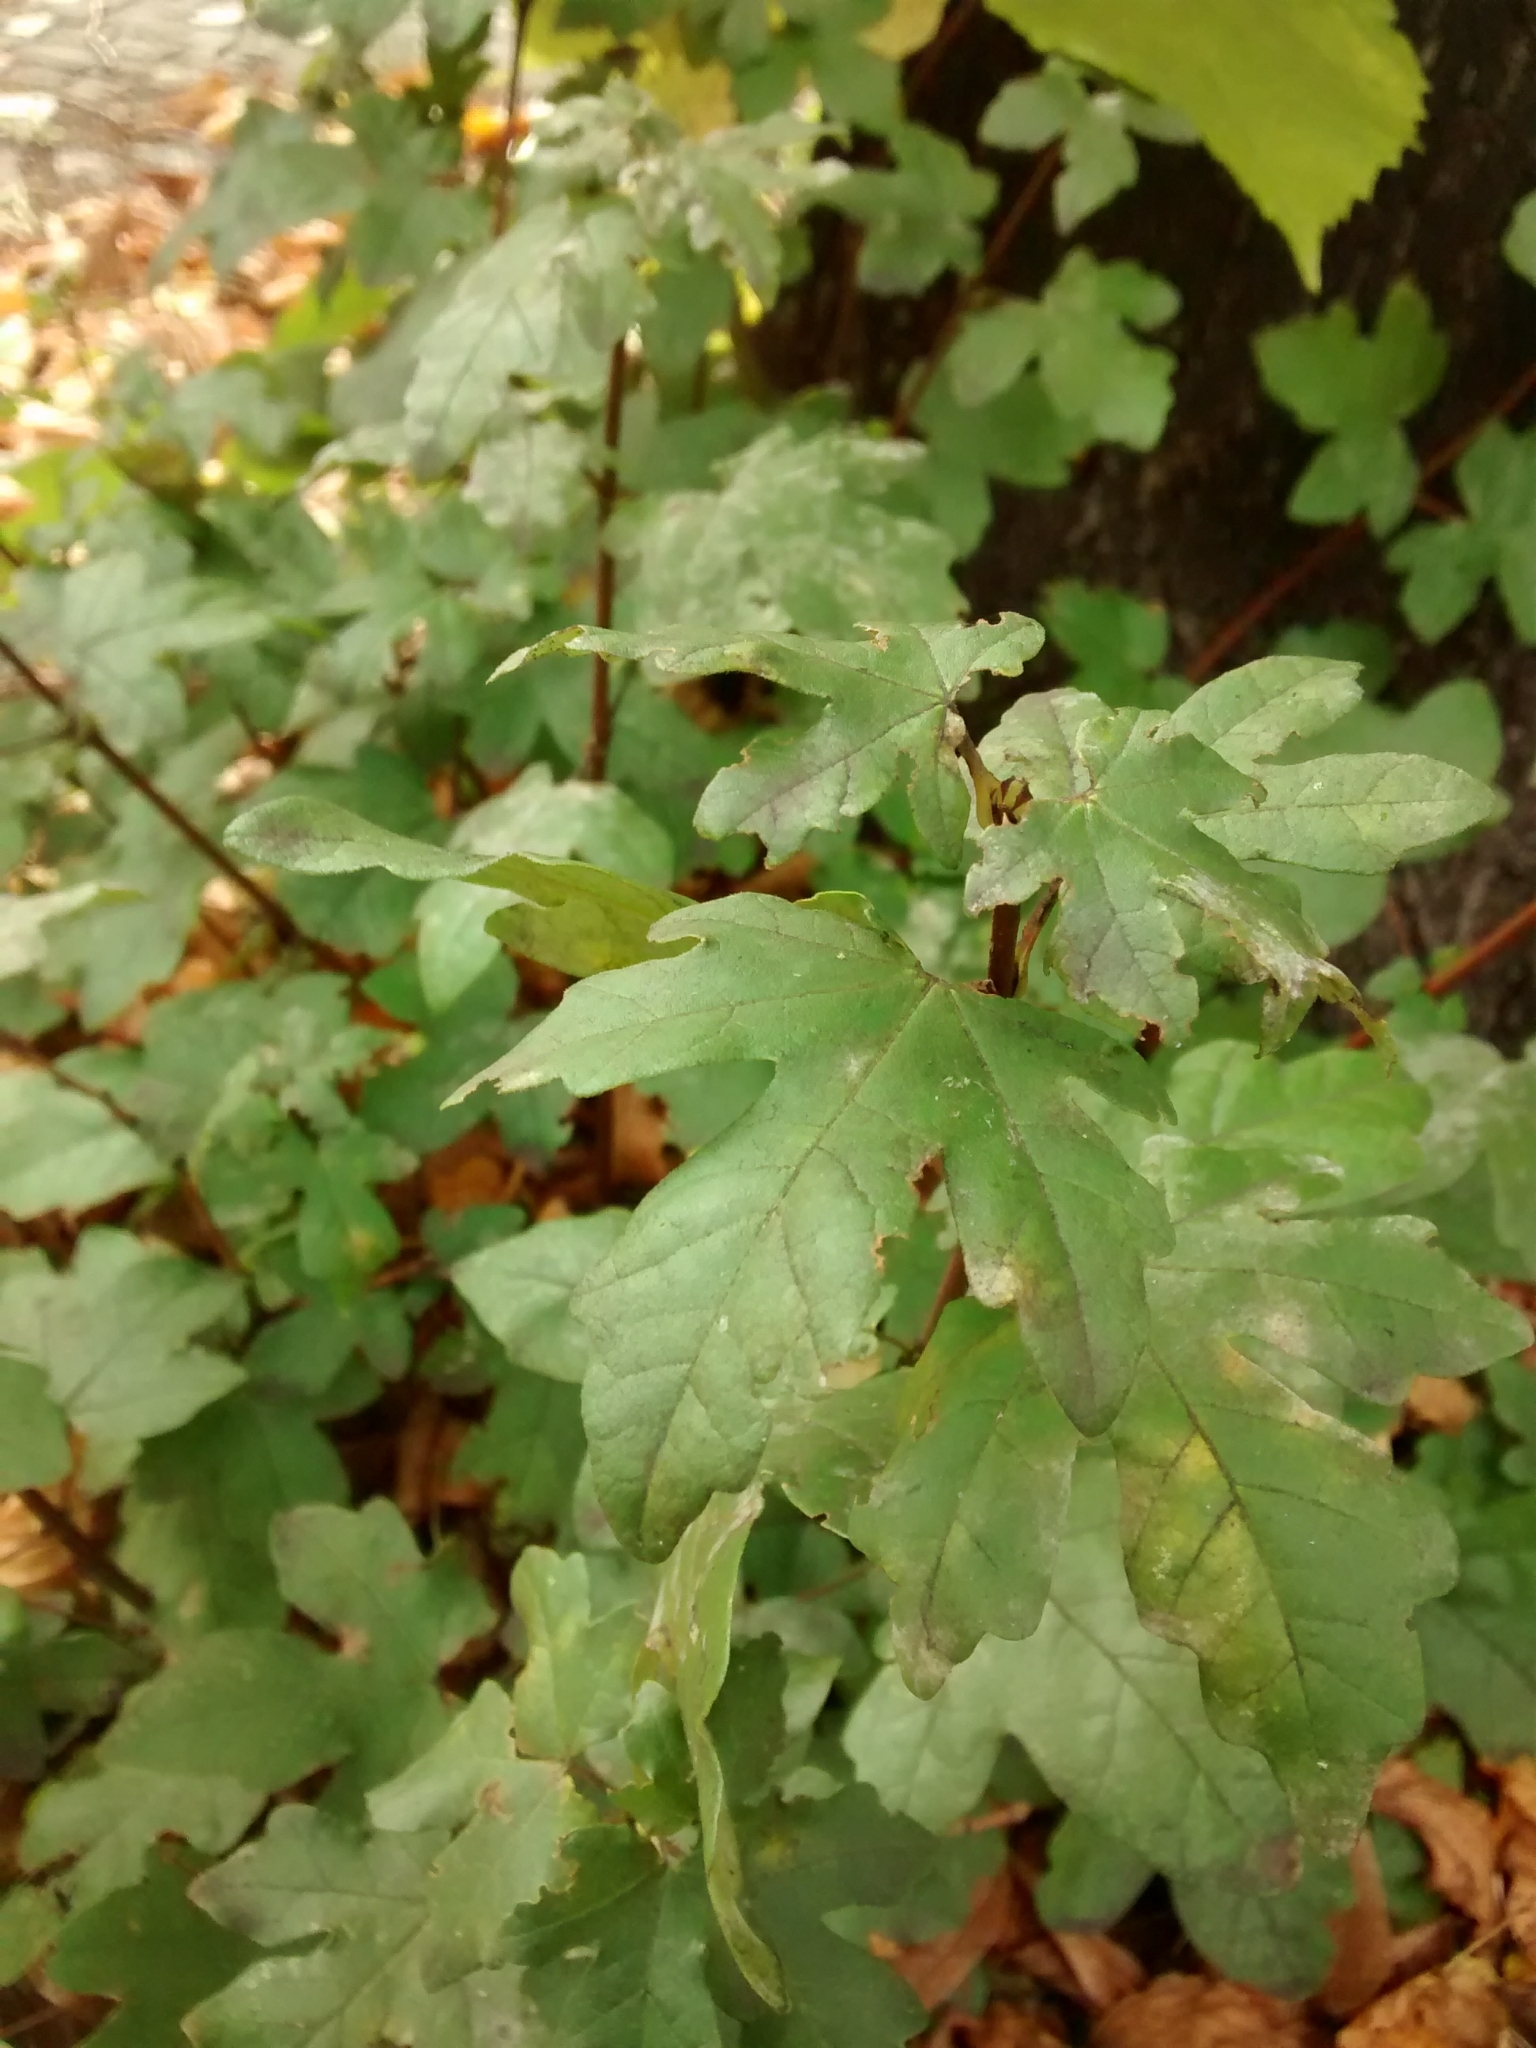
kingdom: Plantae
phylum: Tracheophyta
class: Magnoliopsida
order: Sapindales
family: Sapindaceae
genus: Acer
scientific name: Acer campestre
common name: Field maple
